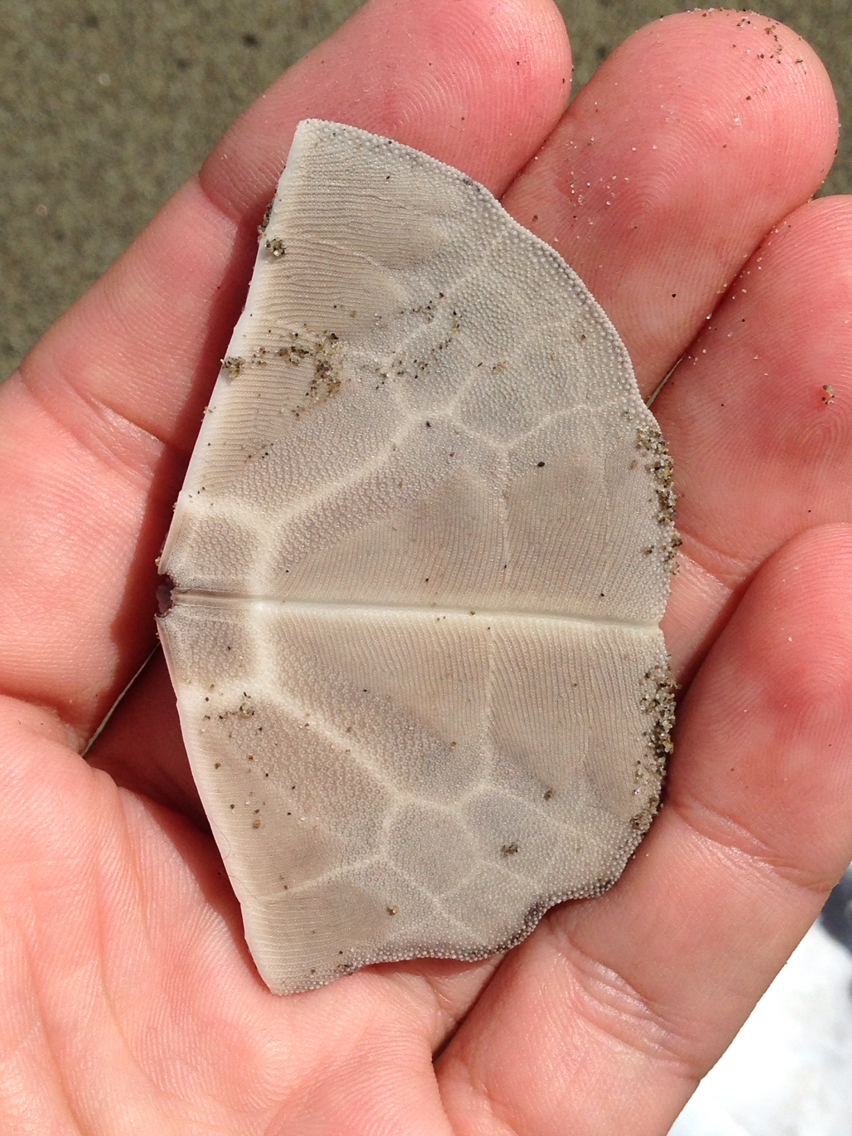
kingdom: Animalia
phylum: Echinodermata
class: Echinoidea
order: Clypeasteroida
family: Clypeasteridae
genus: Fellaster
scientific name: Fellaster zelandiae
